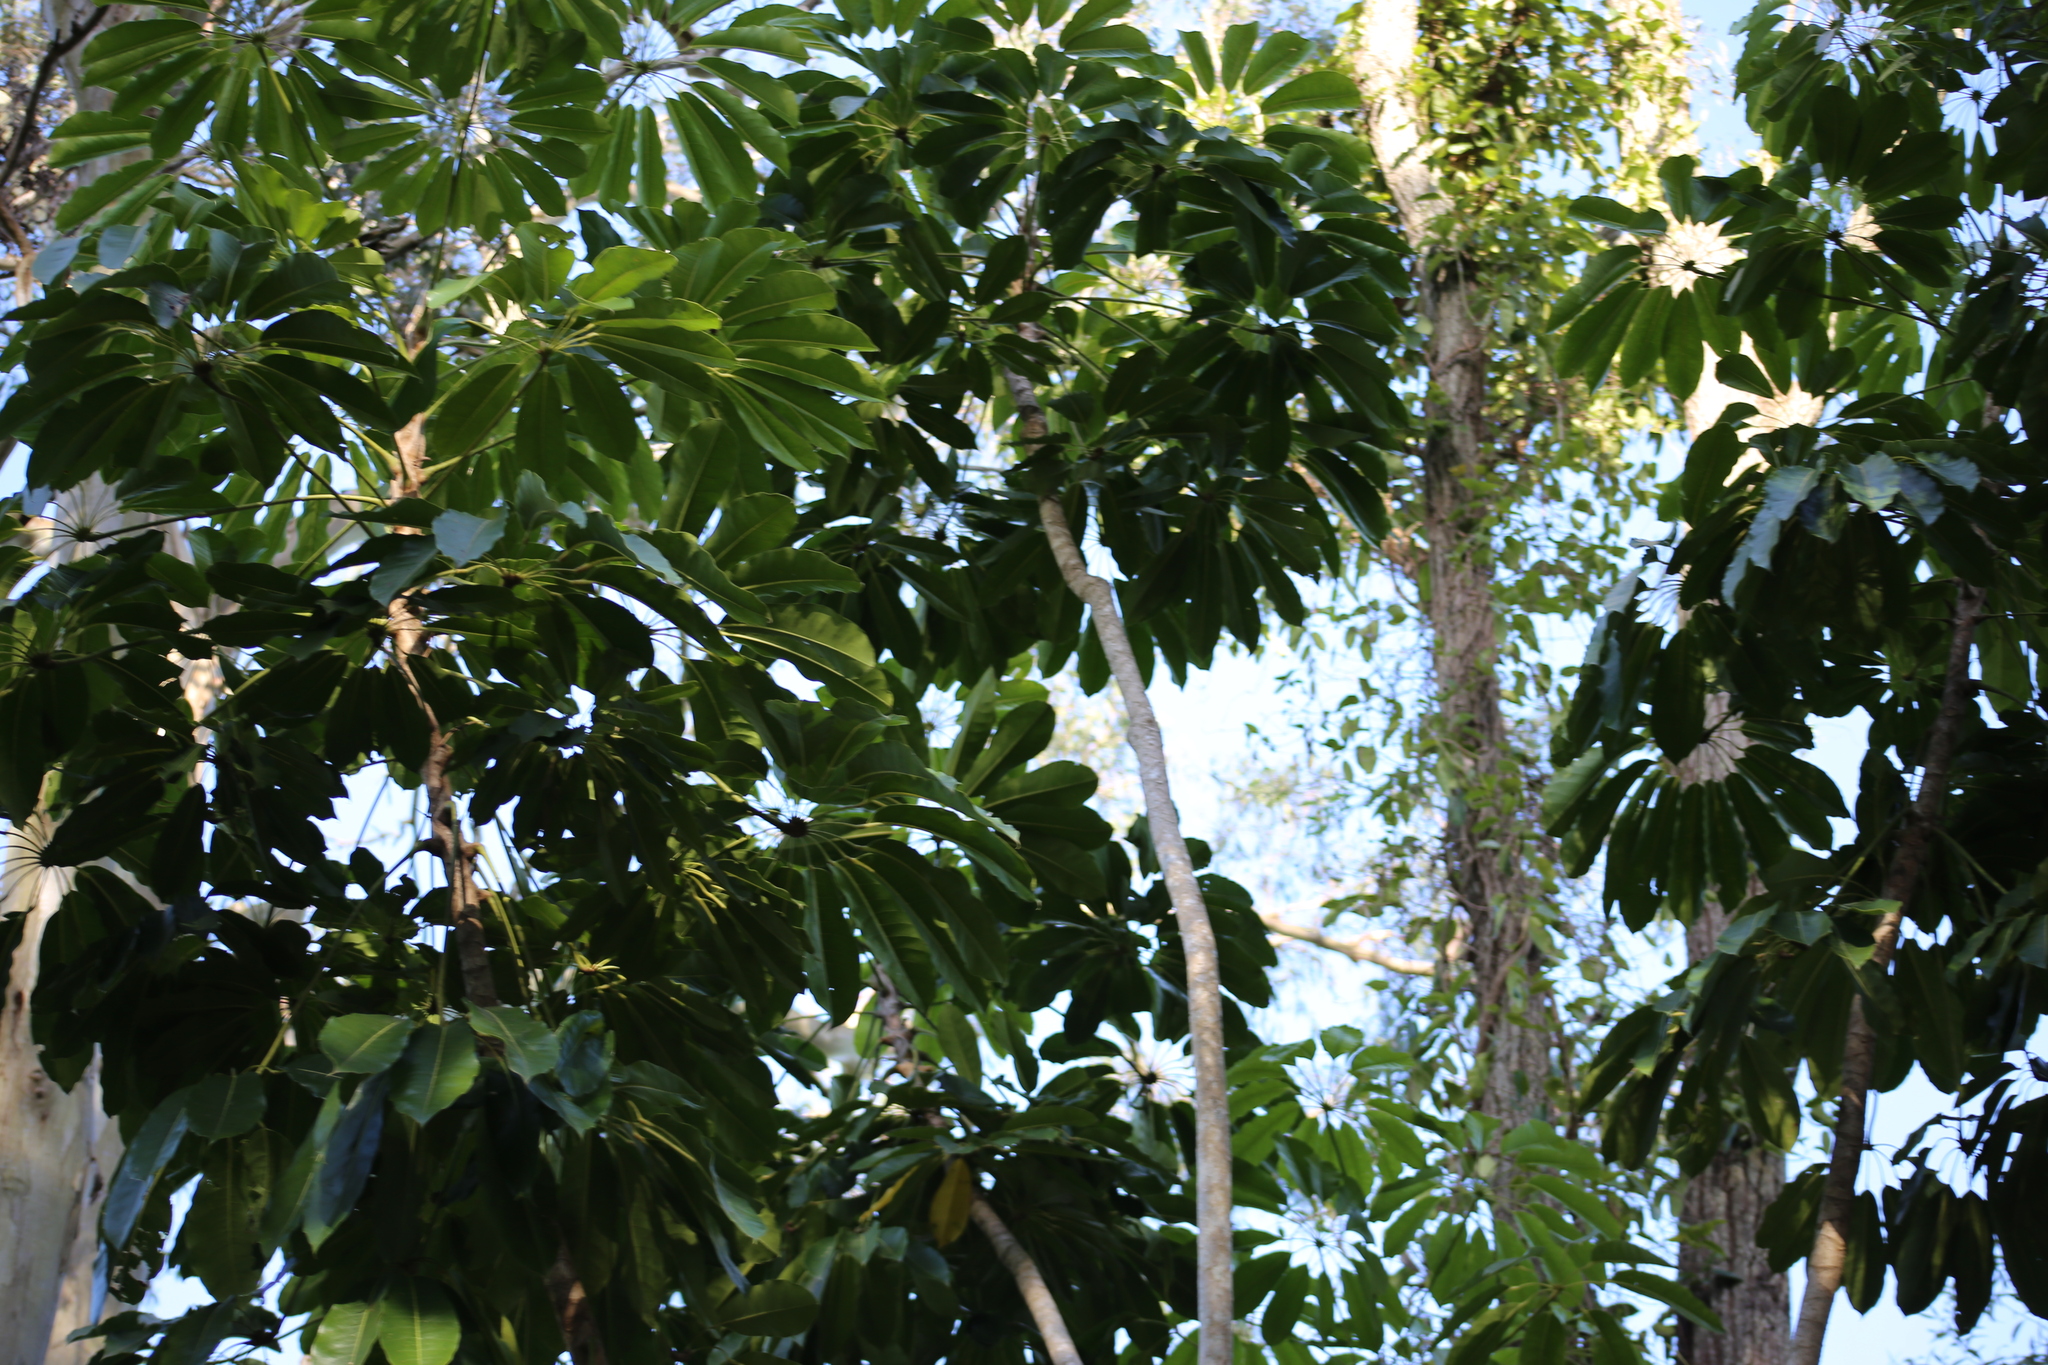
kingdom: Plantae
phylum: Tracheophyta
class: Magnoliopsida
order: Apiales
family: Araliaceae
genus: Heptapleurum
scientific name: Heptapleurum actinophyllum
